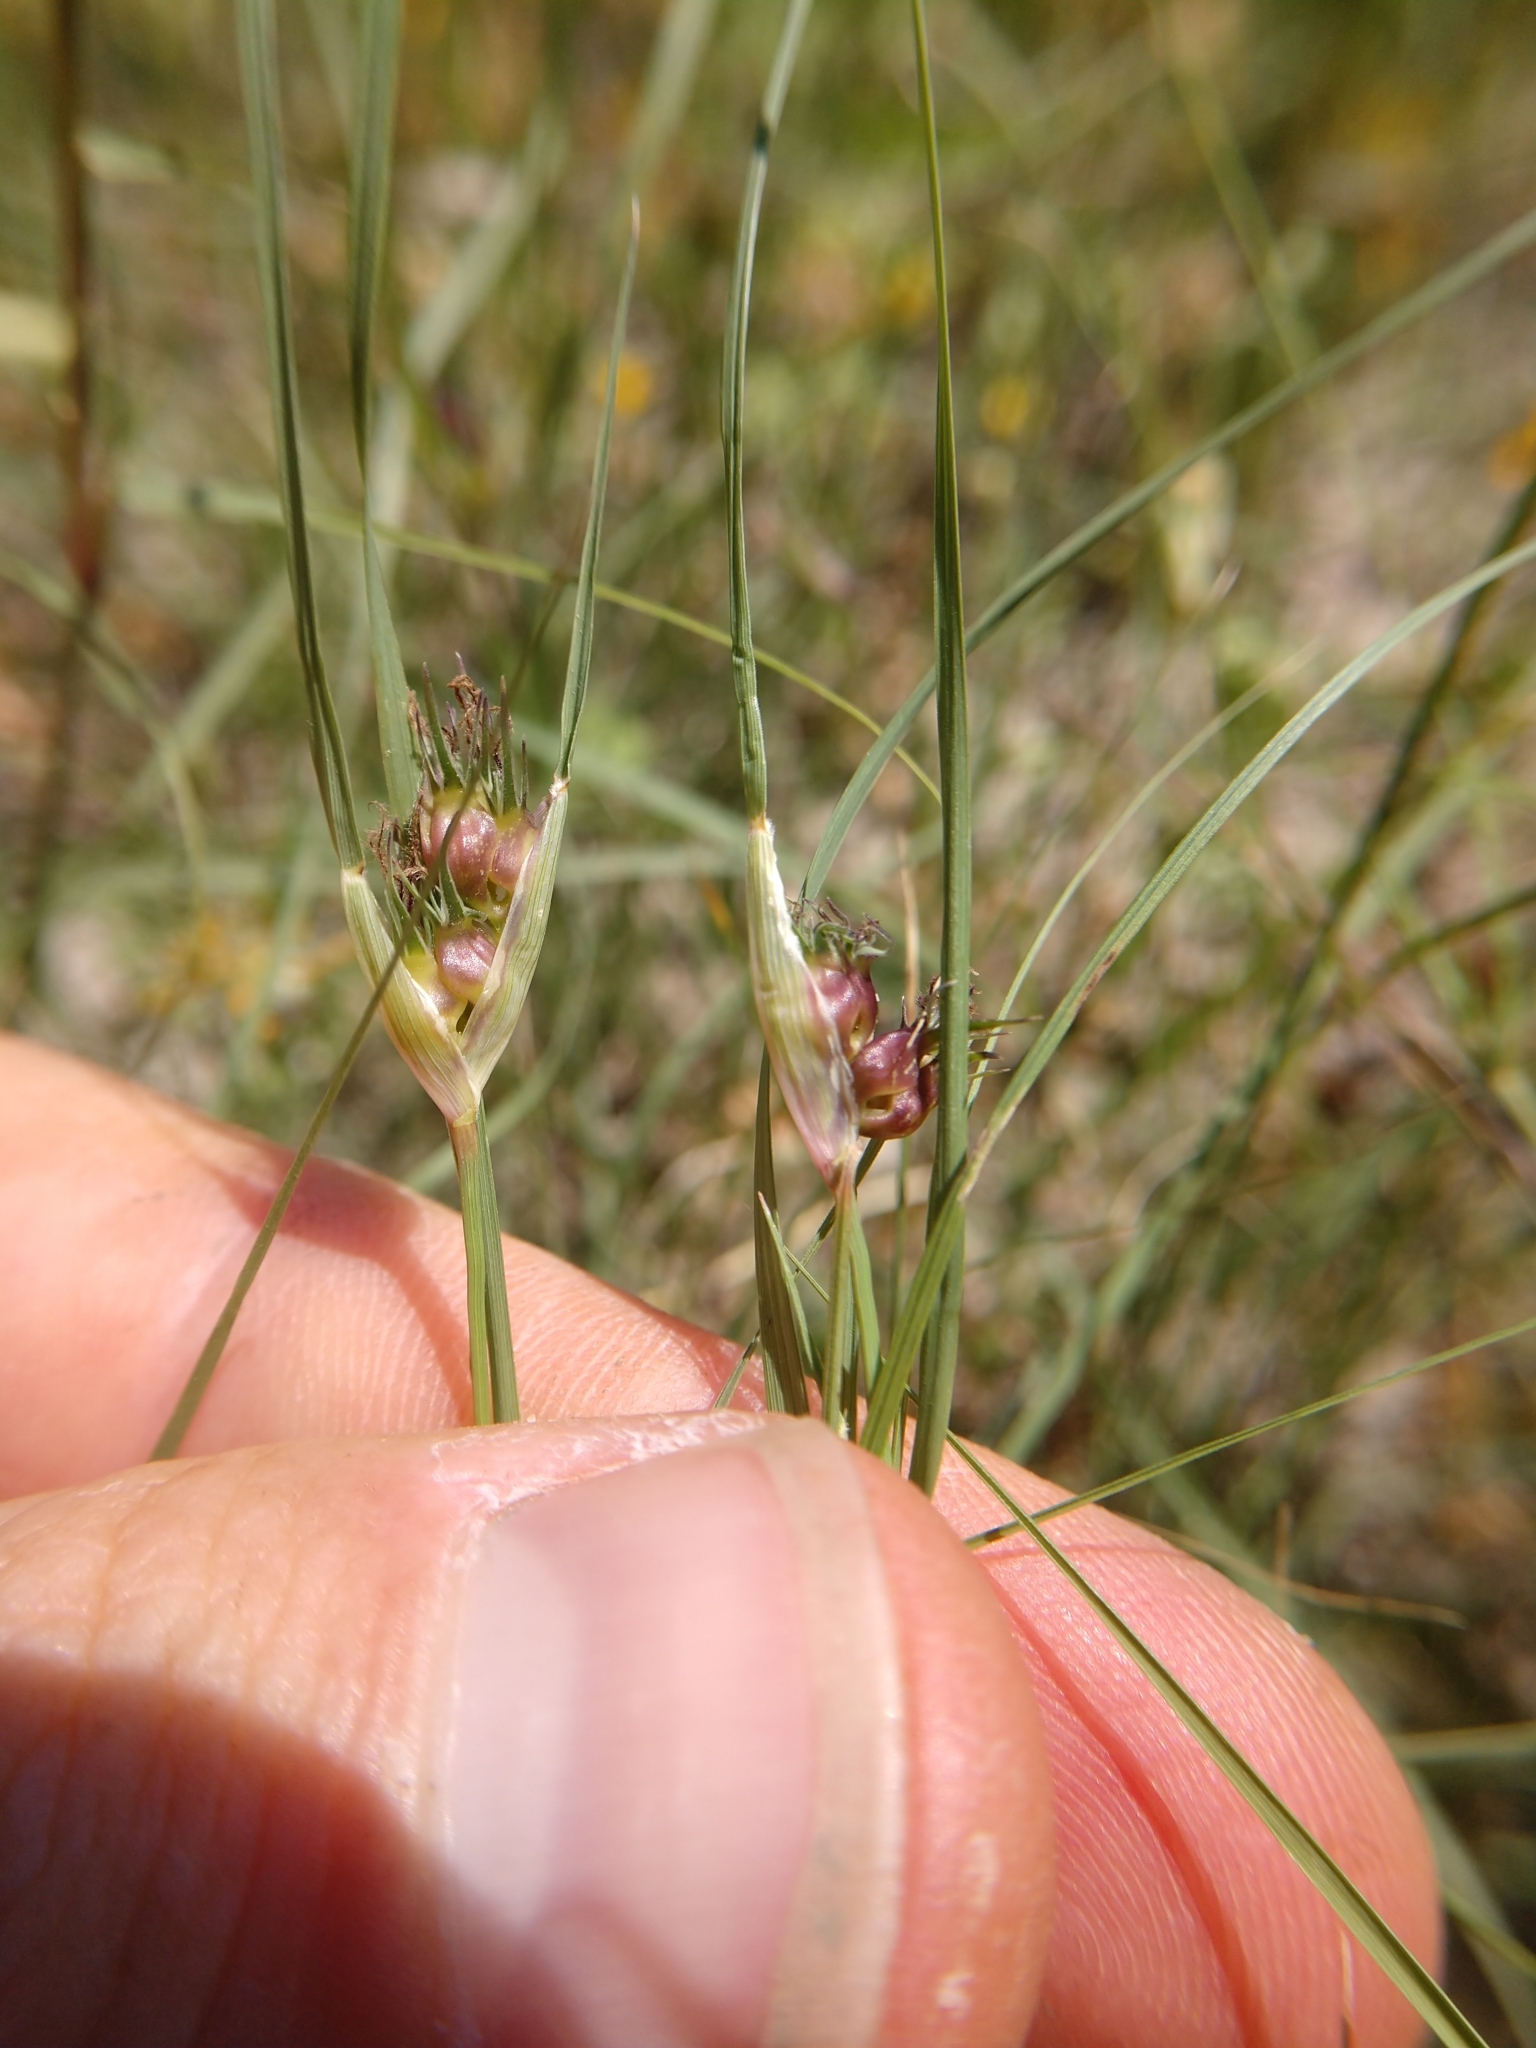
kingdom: Plantae
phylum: Tracheophyta
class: Liliopsida
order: Poales
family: Poaceae
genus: Bouteloua
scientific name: Bouteloua dactyloides
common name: Buffalo grass
